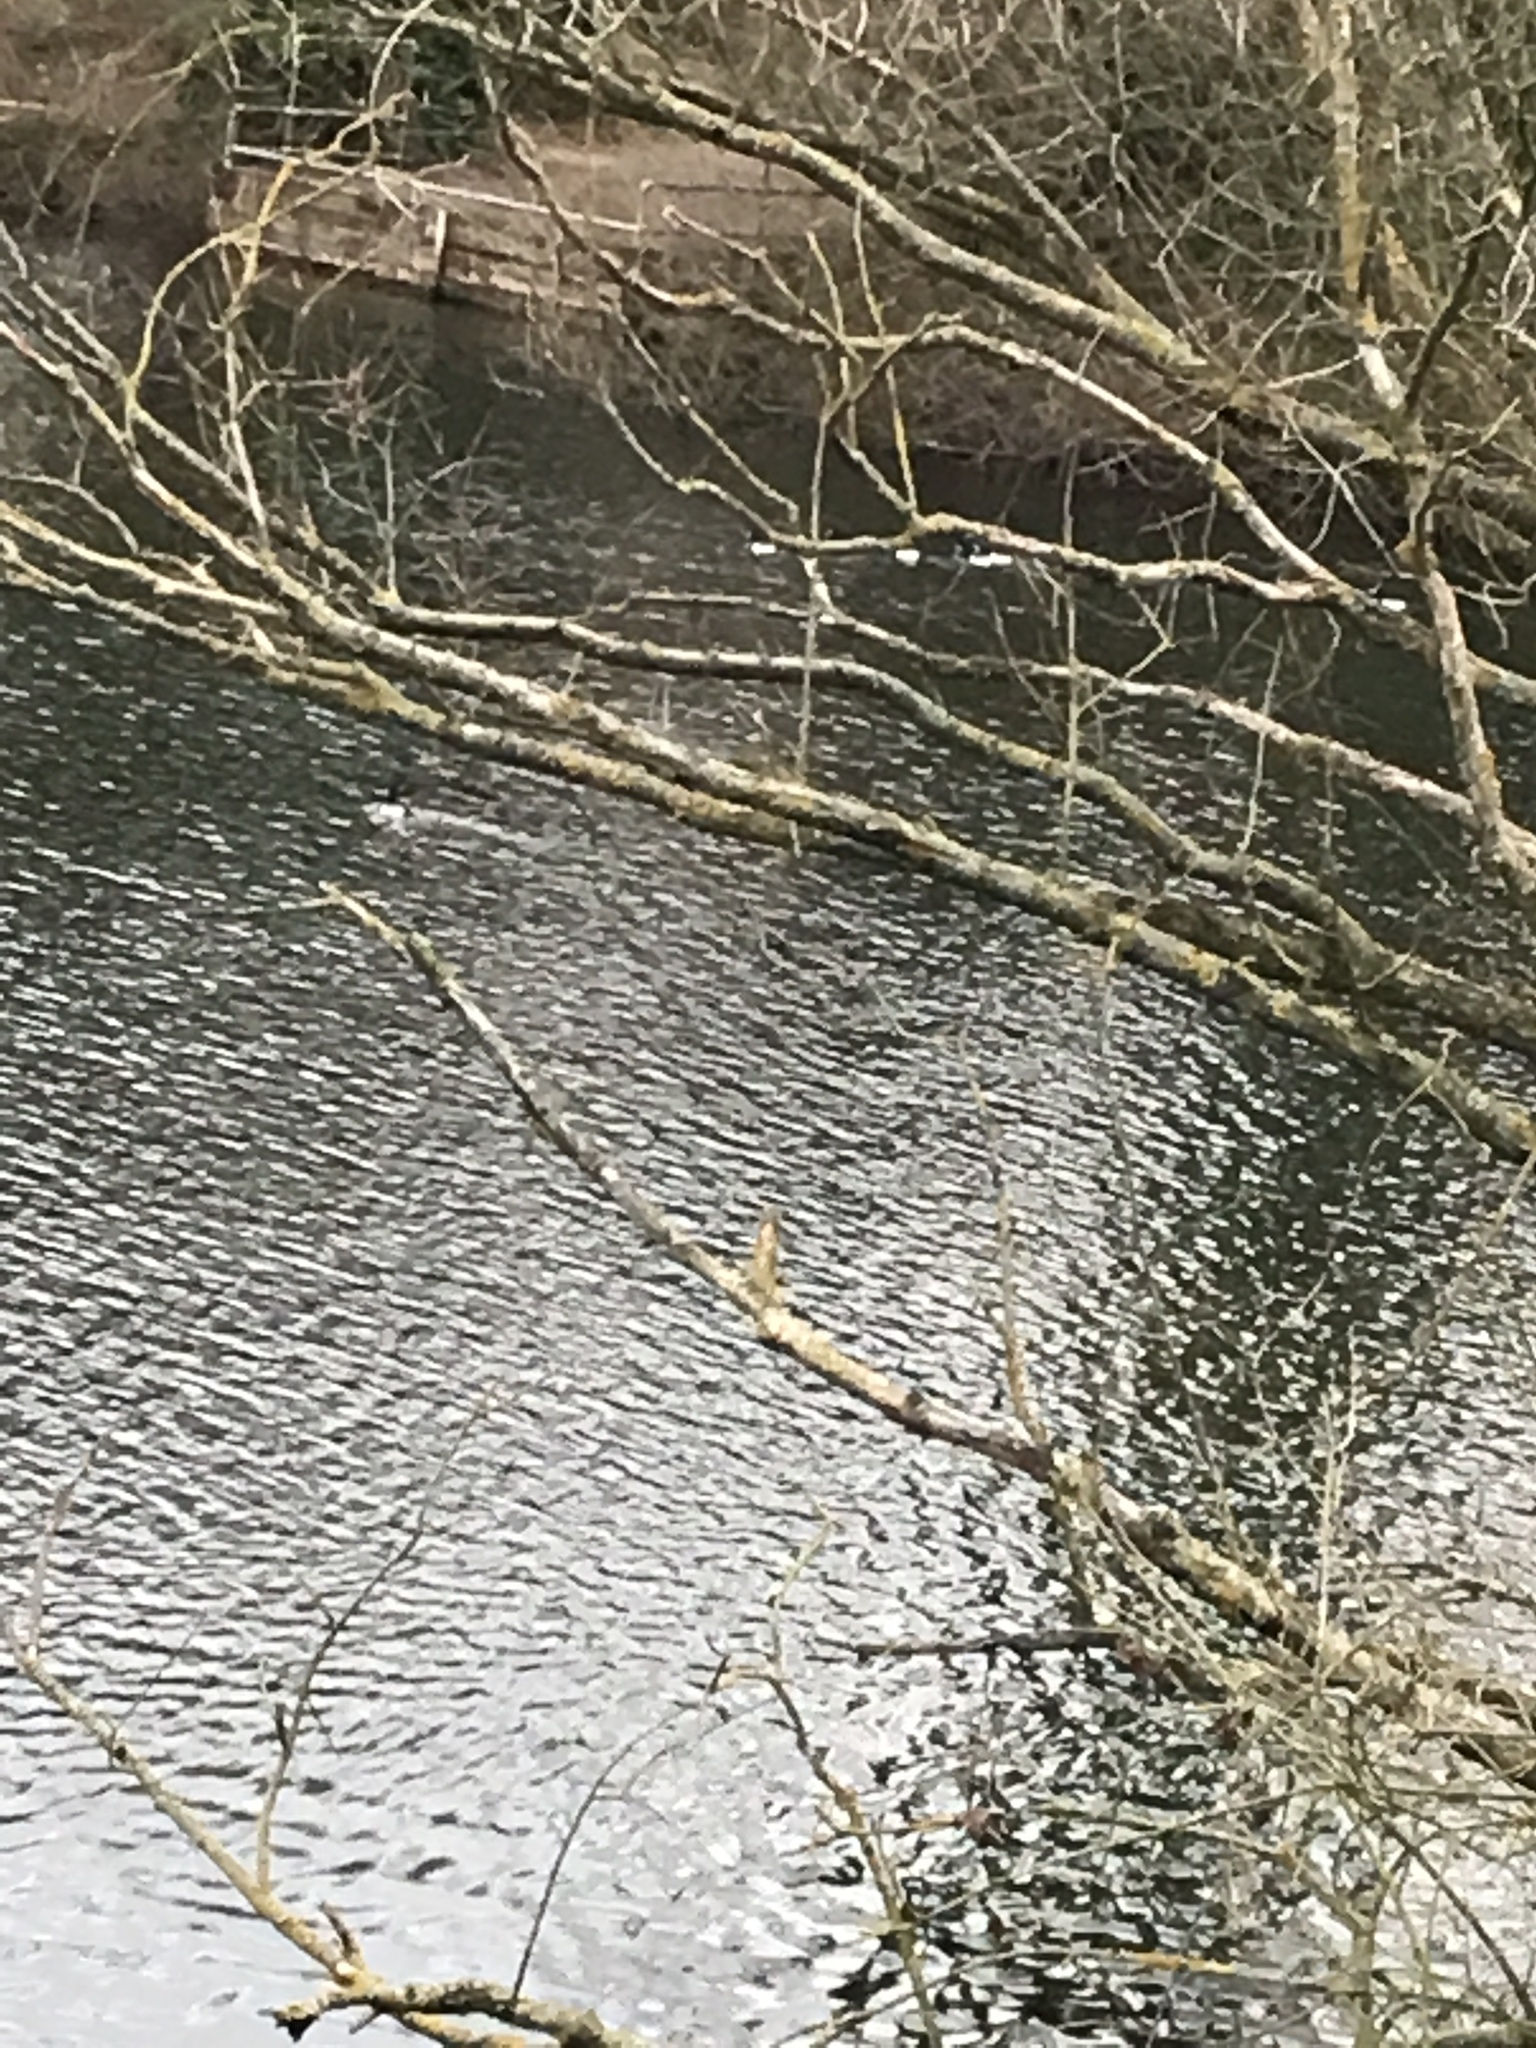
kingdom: Animalia
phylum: Chordata
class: Aves
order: Anseriformes
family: Anatidae
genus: Aythya
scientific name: Aythya fuligula
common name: Tufted duck
